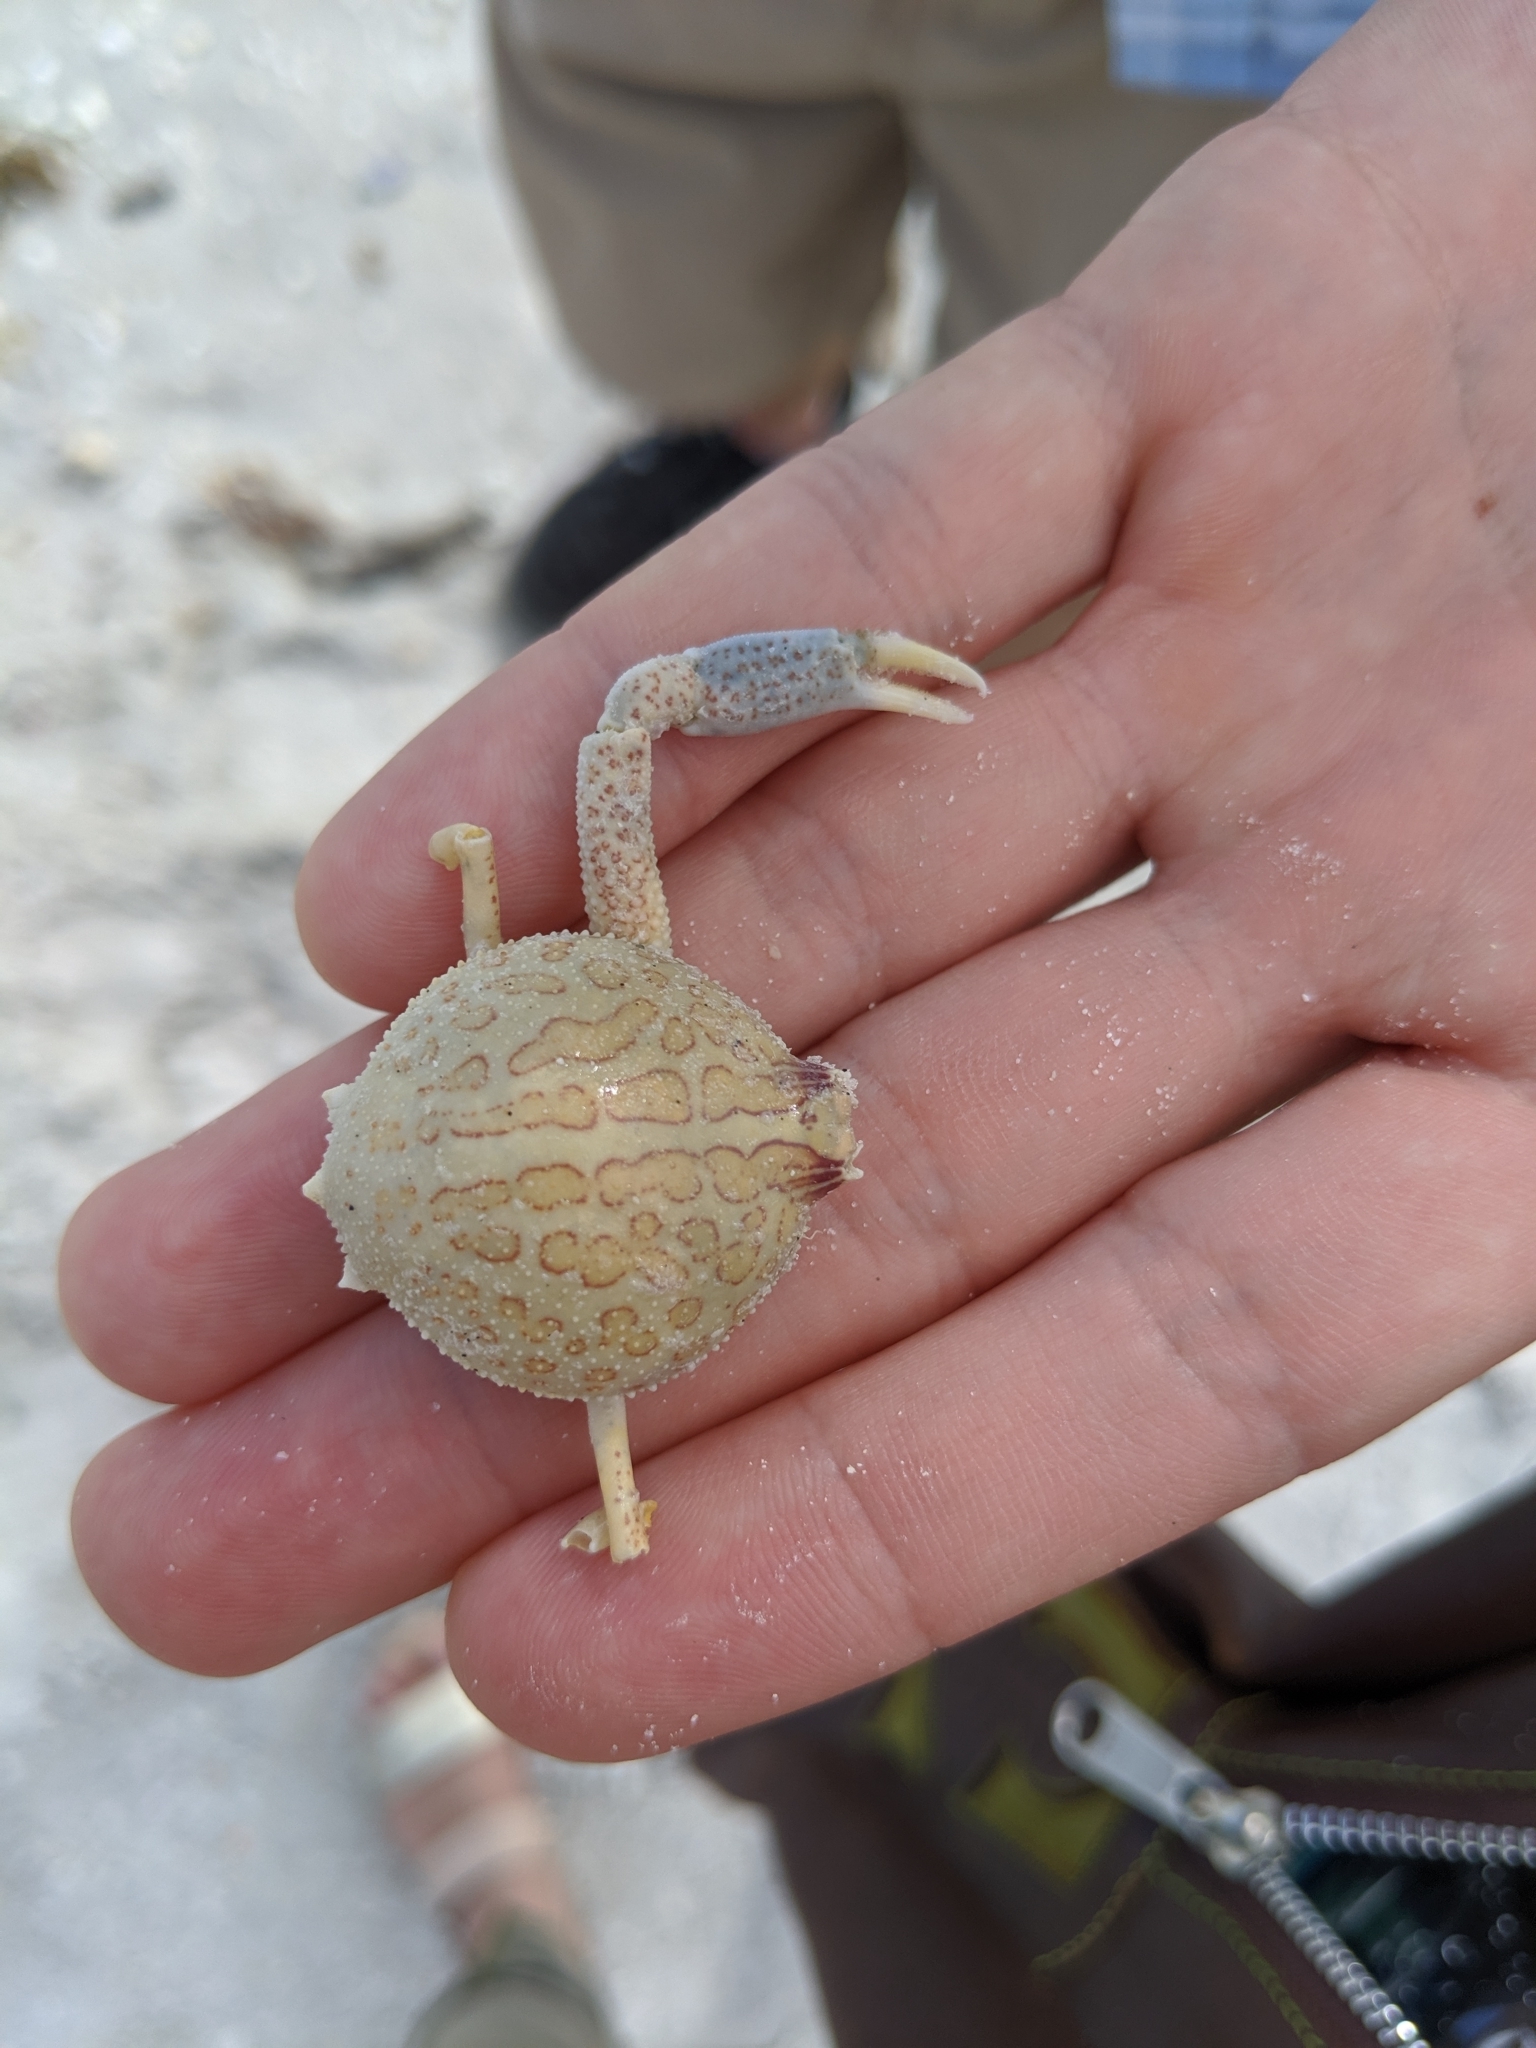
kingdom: Animalia
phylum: Arthropoda
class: Malacostraca
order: Decapoda
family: Leucosiidae
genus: Persephona
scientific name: Persephona mediterranea
